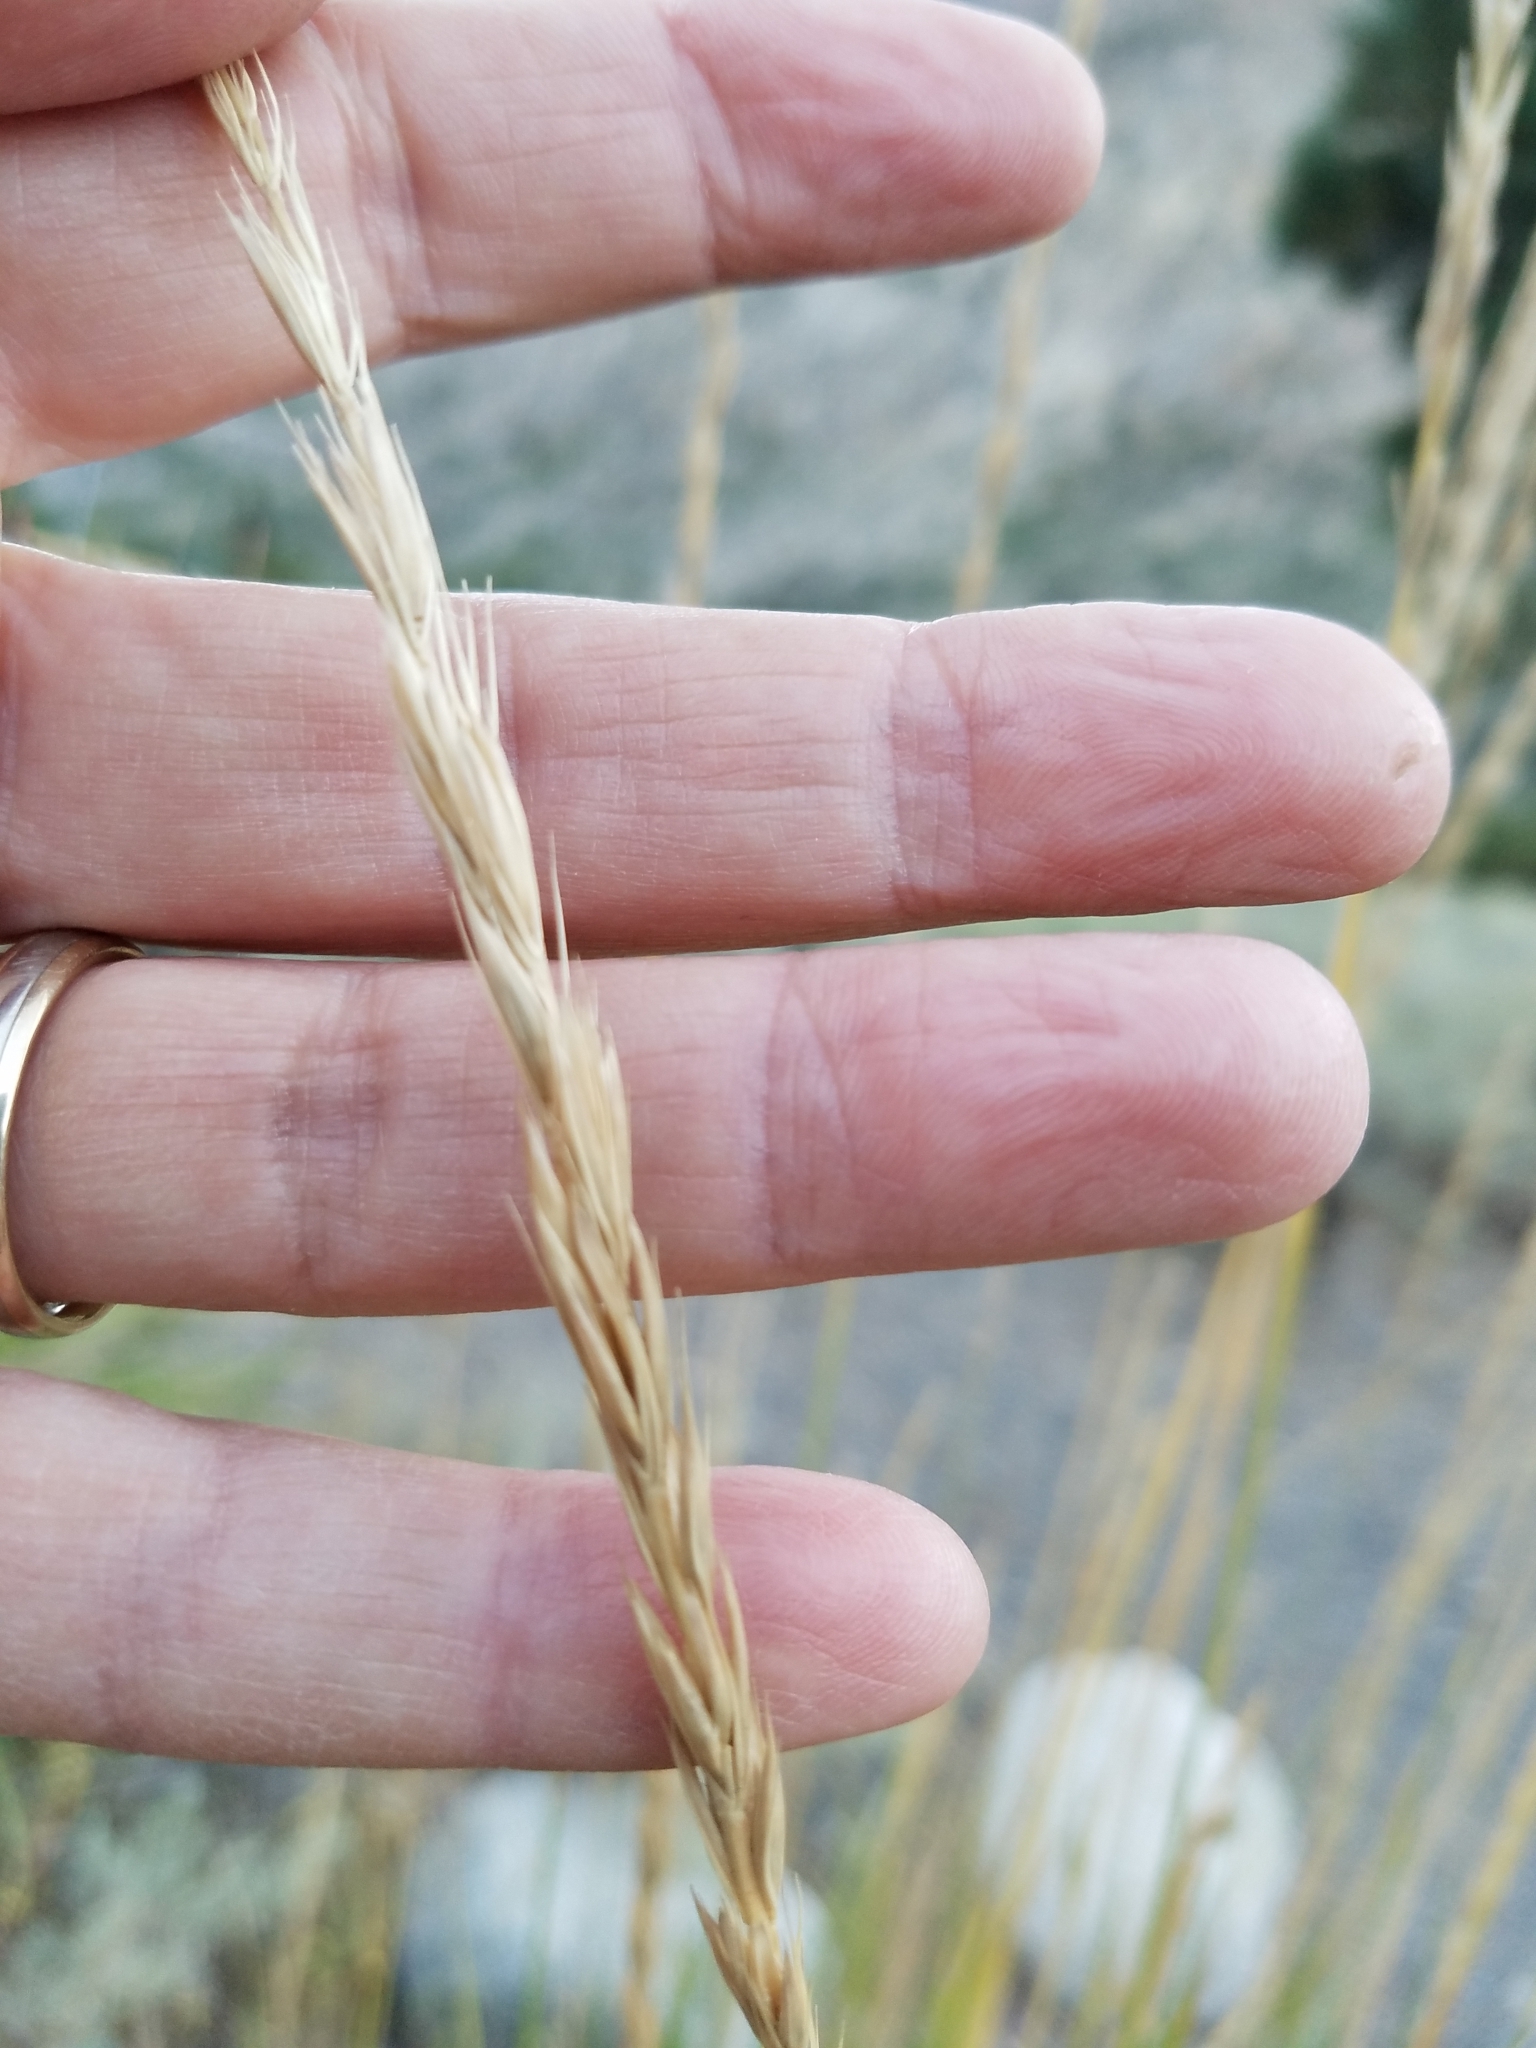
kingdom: Plantae
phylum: Tracheophyta
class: Liliopsida
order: Poales
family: Poaceae
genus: Leymus
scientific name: Leymus cinereus
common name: Basin wild rye
